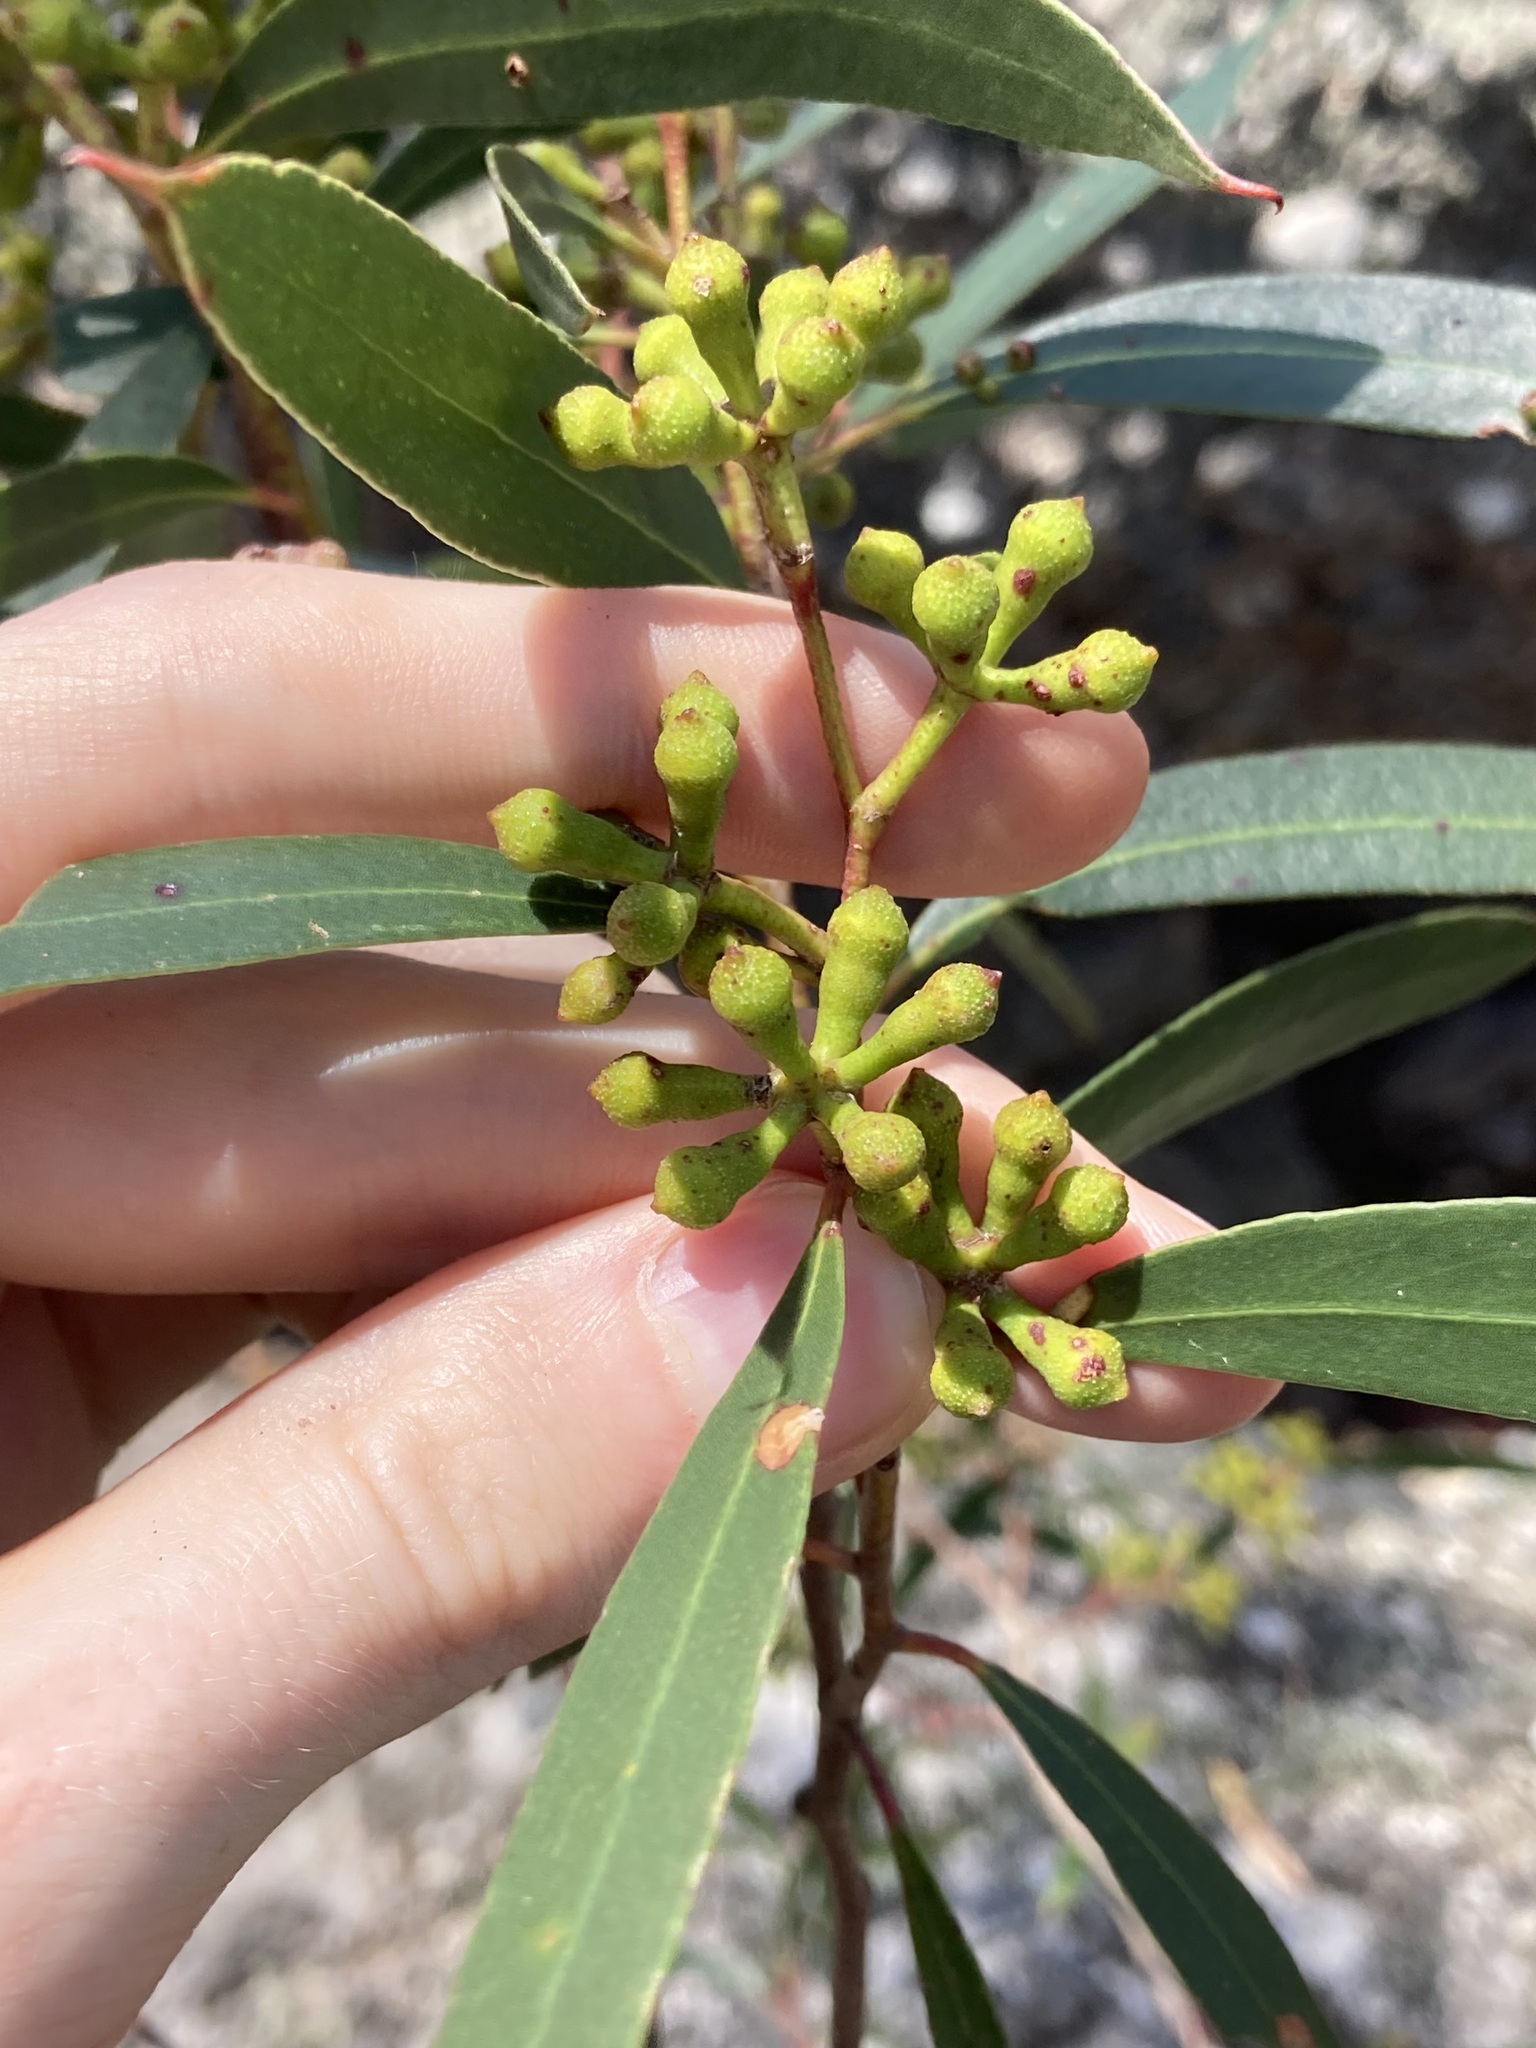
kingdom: Plantae
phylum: Tracheophyta
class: Magnoliopsida
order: Myrtales
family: Myrtaceae
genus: Eucalyptus
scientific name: Eucalyptus stricta
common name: Blue-mountain-malle-ash
